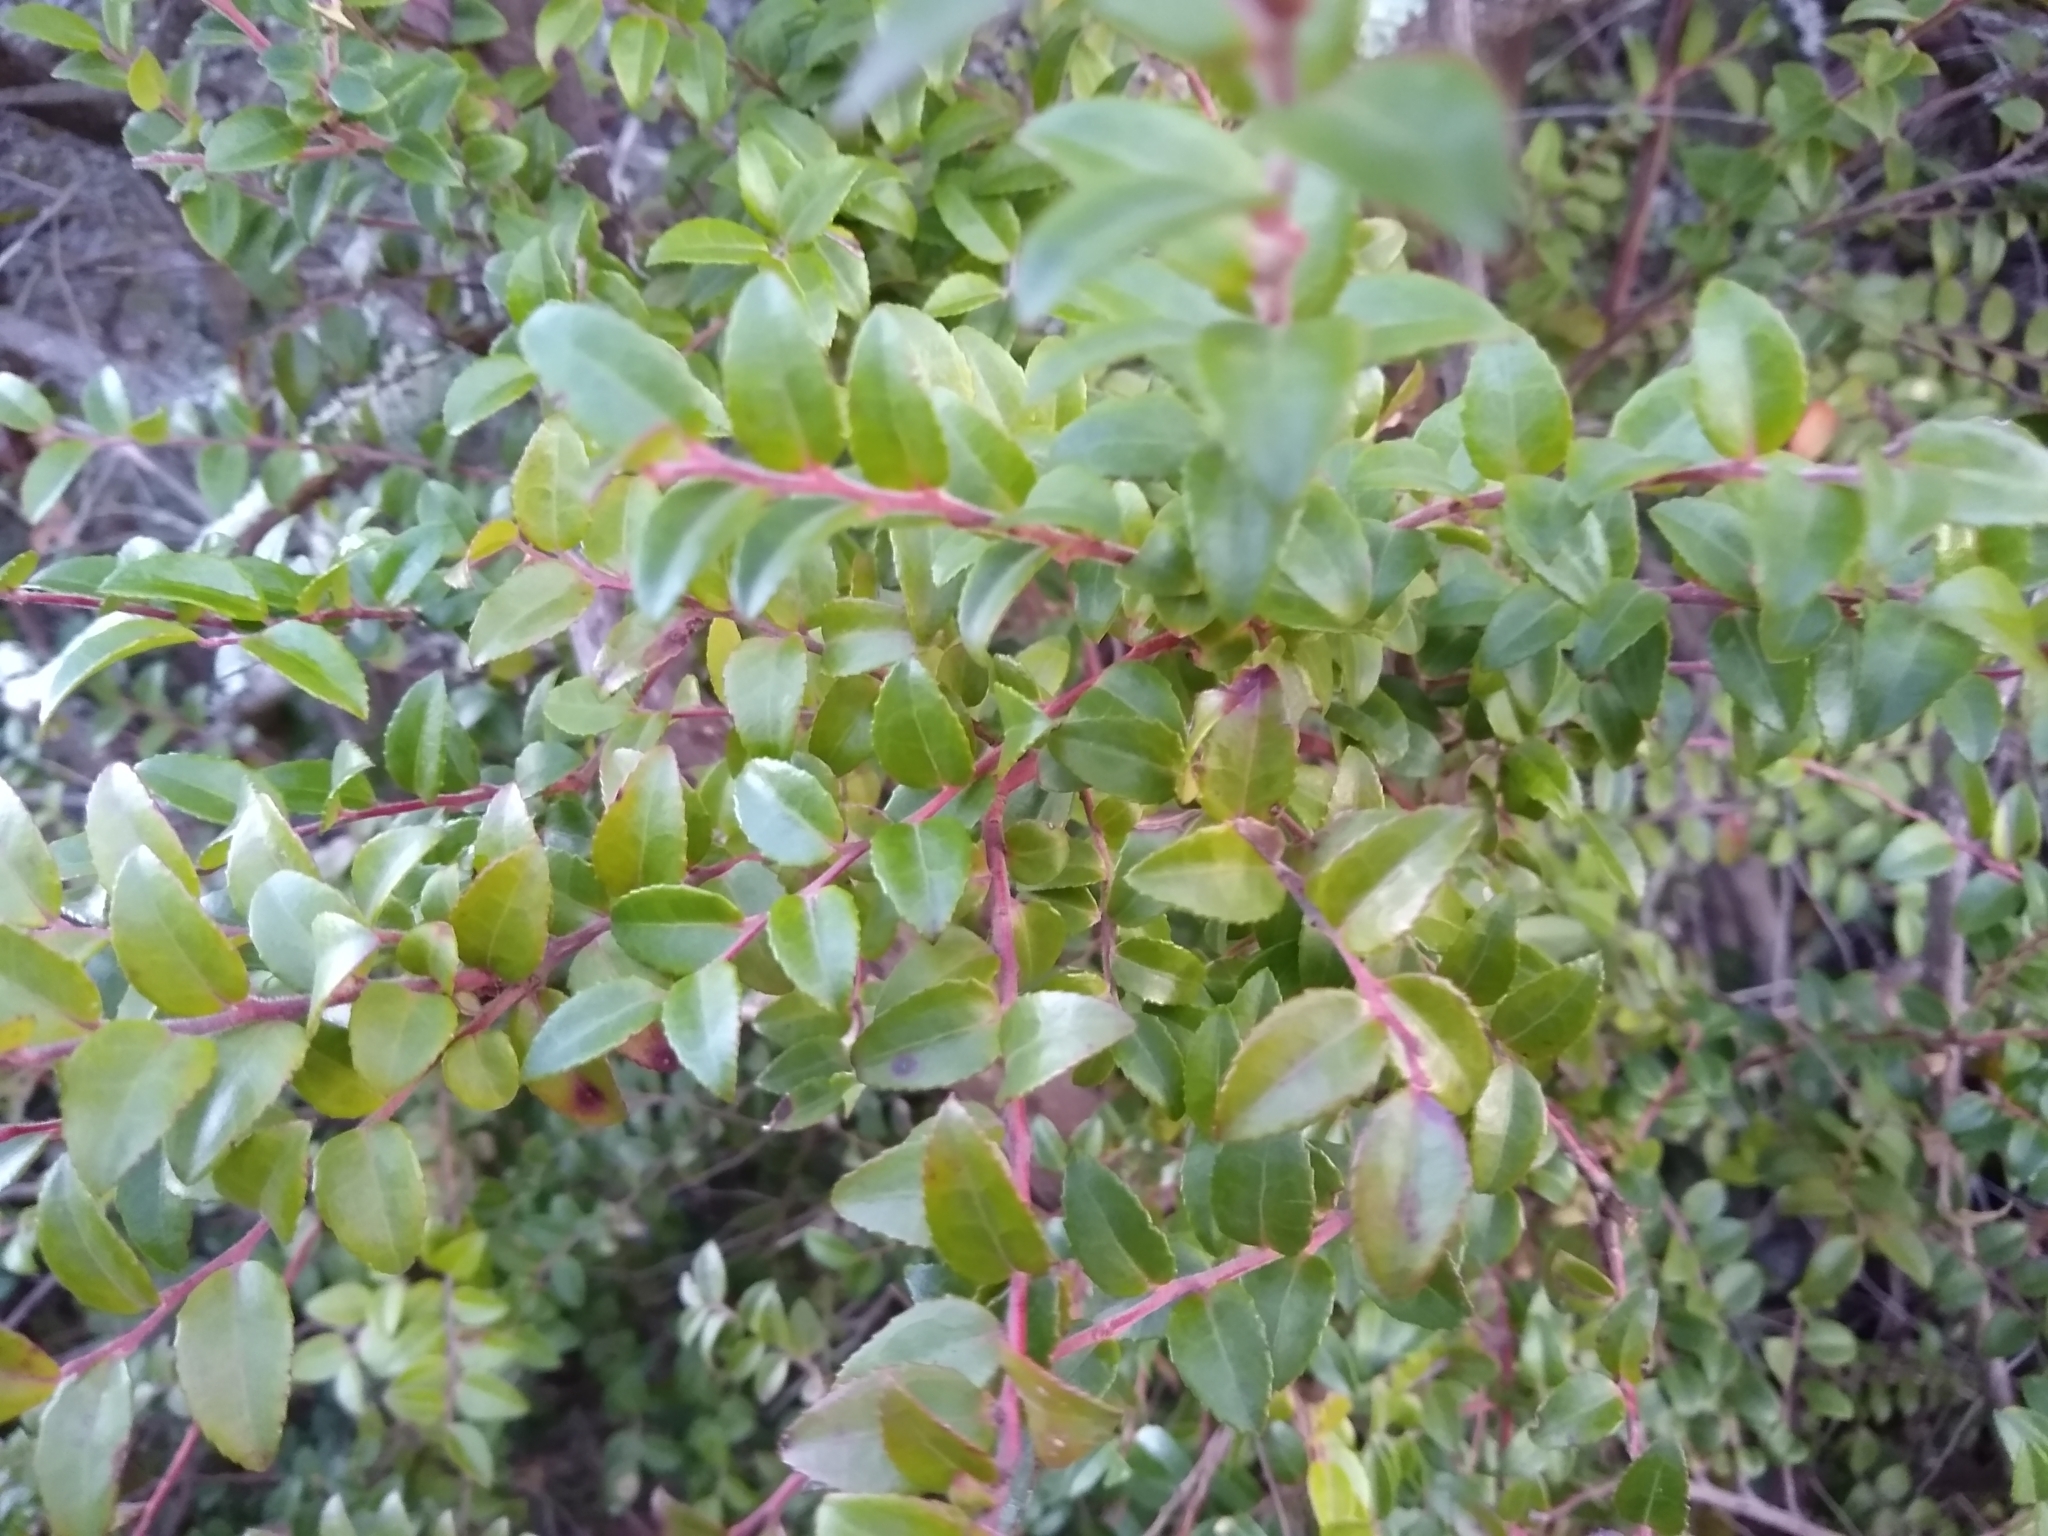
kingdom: Plantae
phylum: Tracheophyta
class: Magnoliopsida
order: Ericales
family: Ericaceae
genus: Vaccinium
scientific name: Vaccinium ovatum
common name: California-huckleberry
